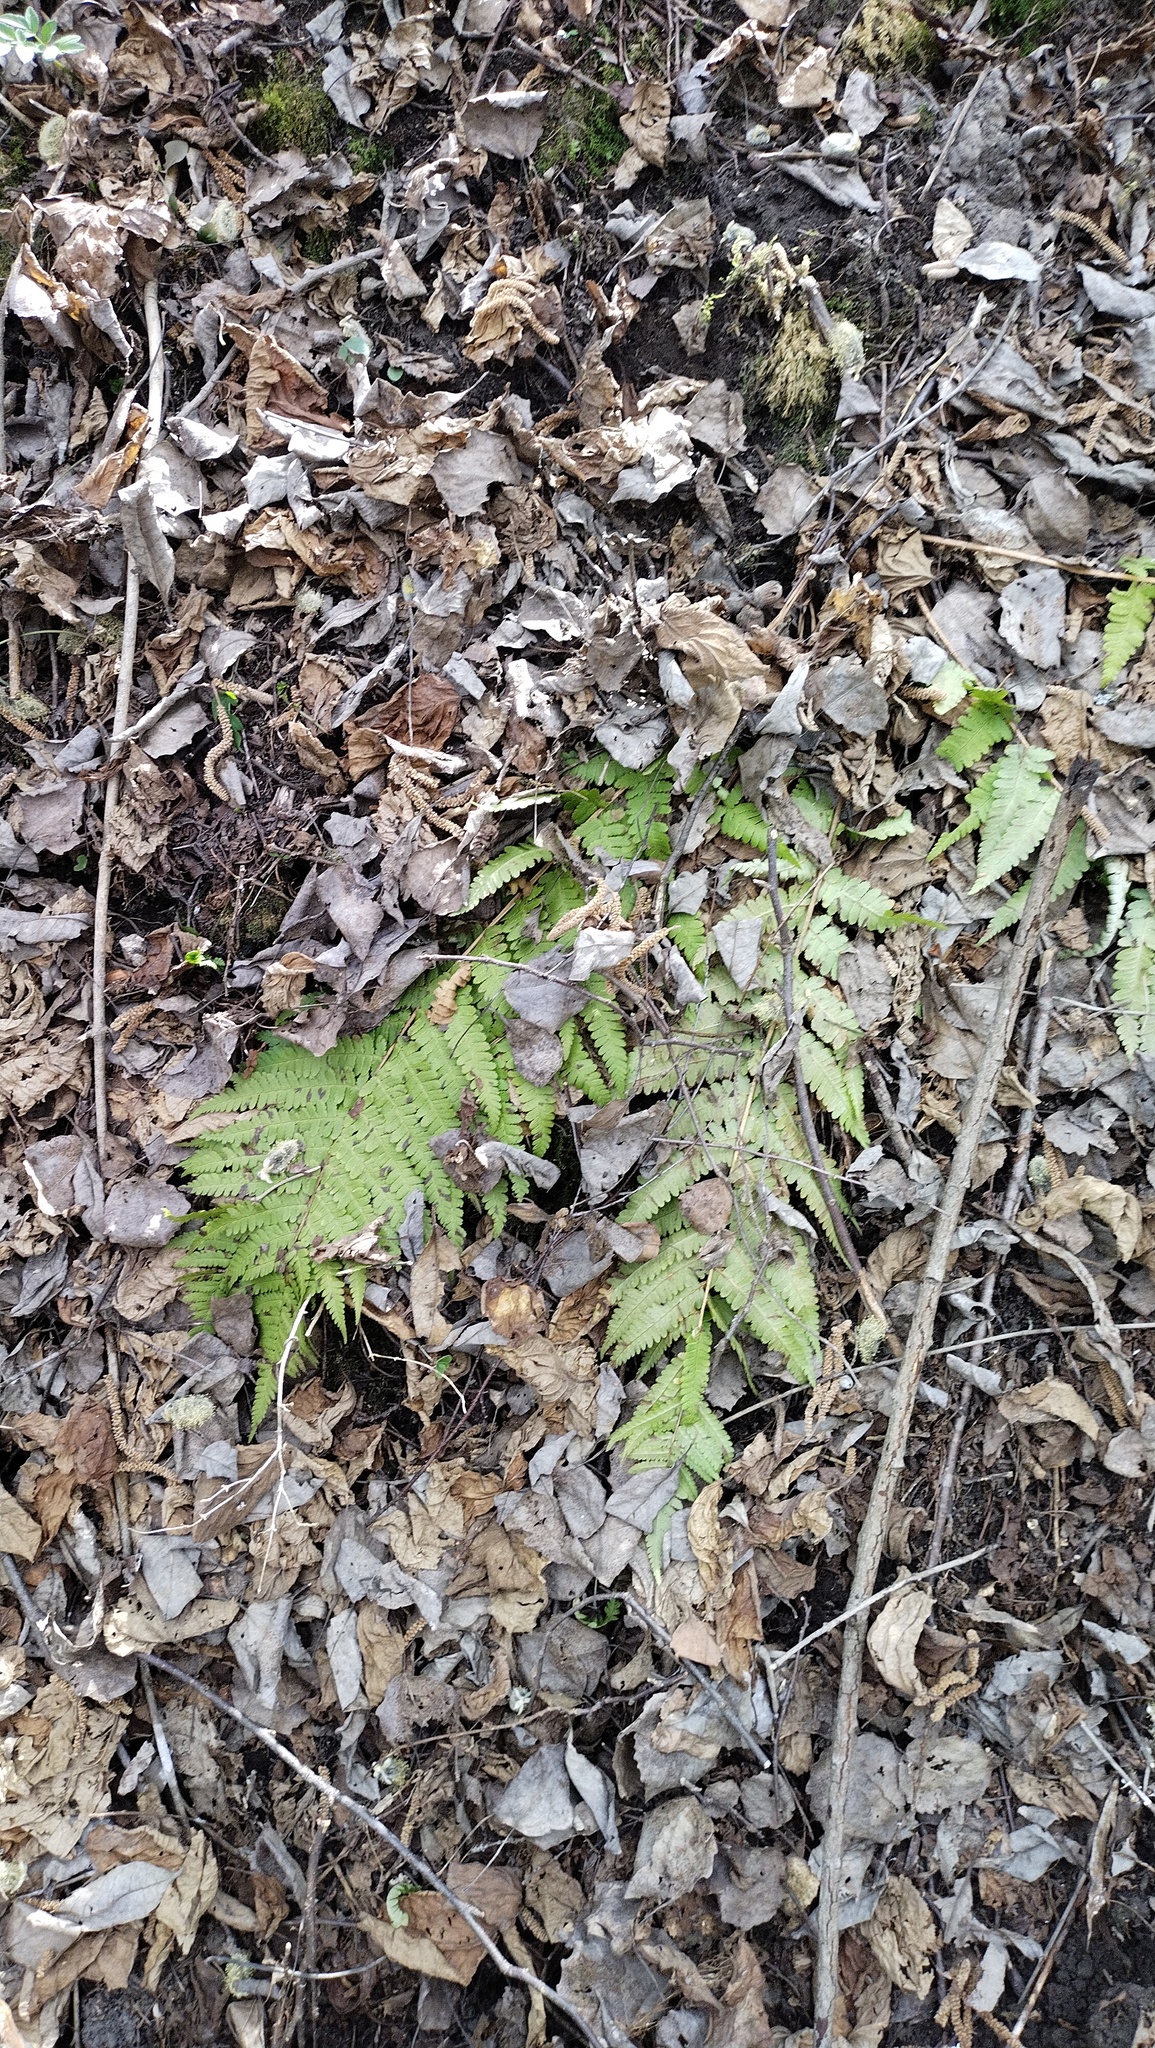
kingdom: Plantae
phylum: Tracheophyta
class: Polypodiopsida
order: Polypodiales
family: Dryopteridaceae
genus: Dryopteris
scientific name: Dryopteris filix-mas
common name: Male fern
